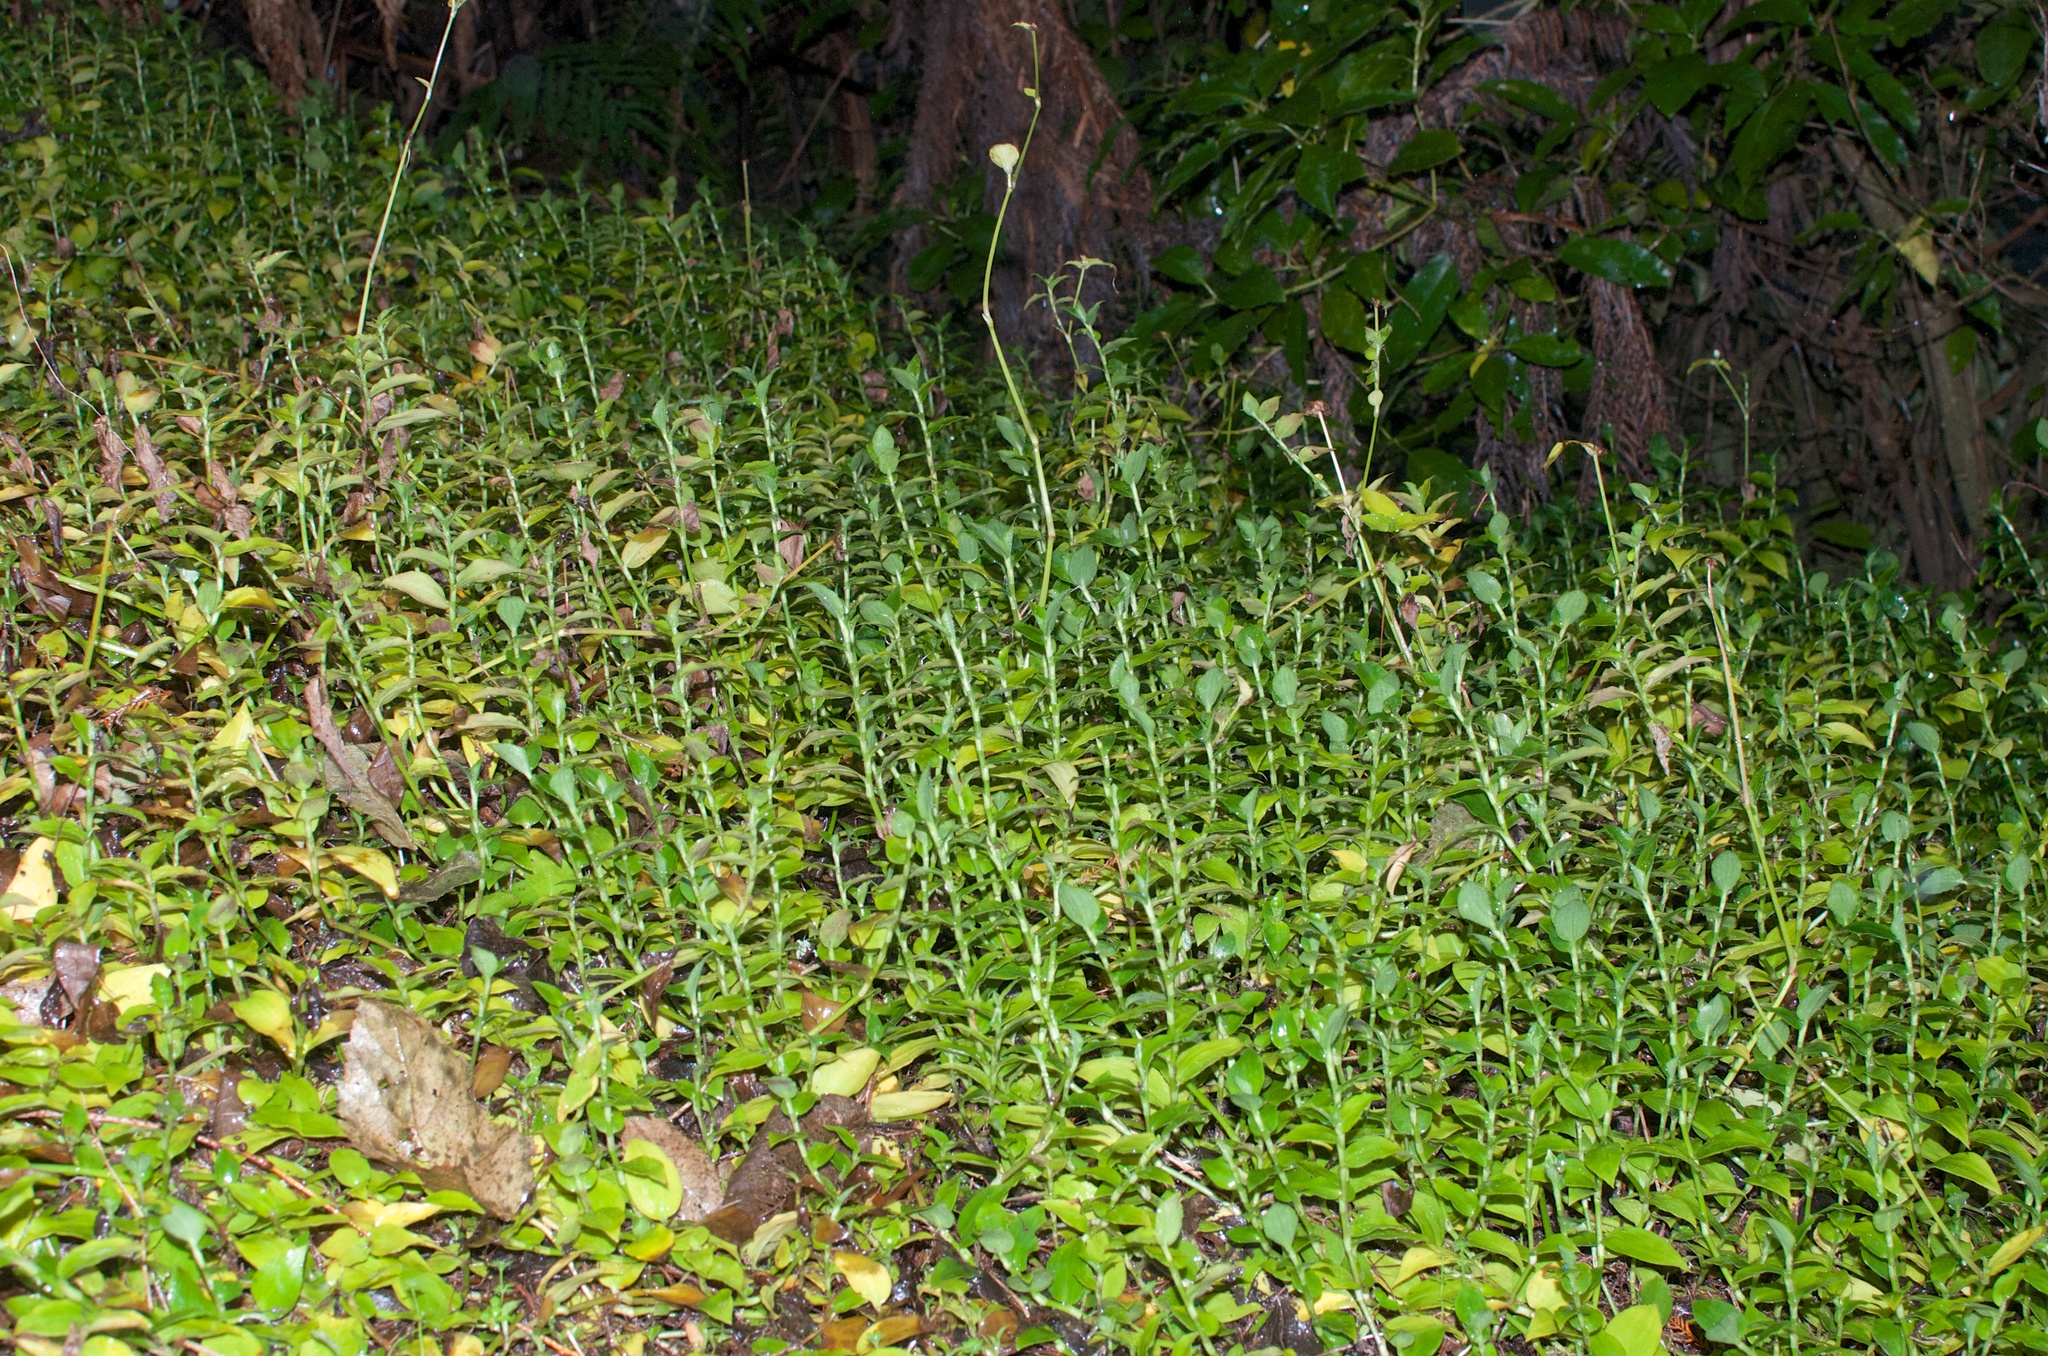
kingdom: Plantae
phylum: Tracheophyta
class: Liliopsida
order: Commelinales
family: Commelinaceae
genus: Tradescantia
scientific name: Tradescantia fluminensis
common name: Wandering-jew
